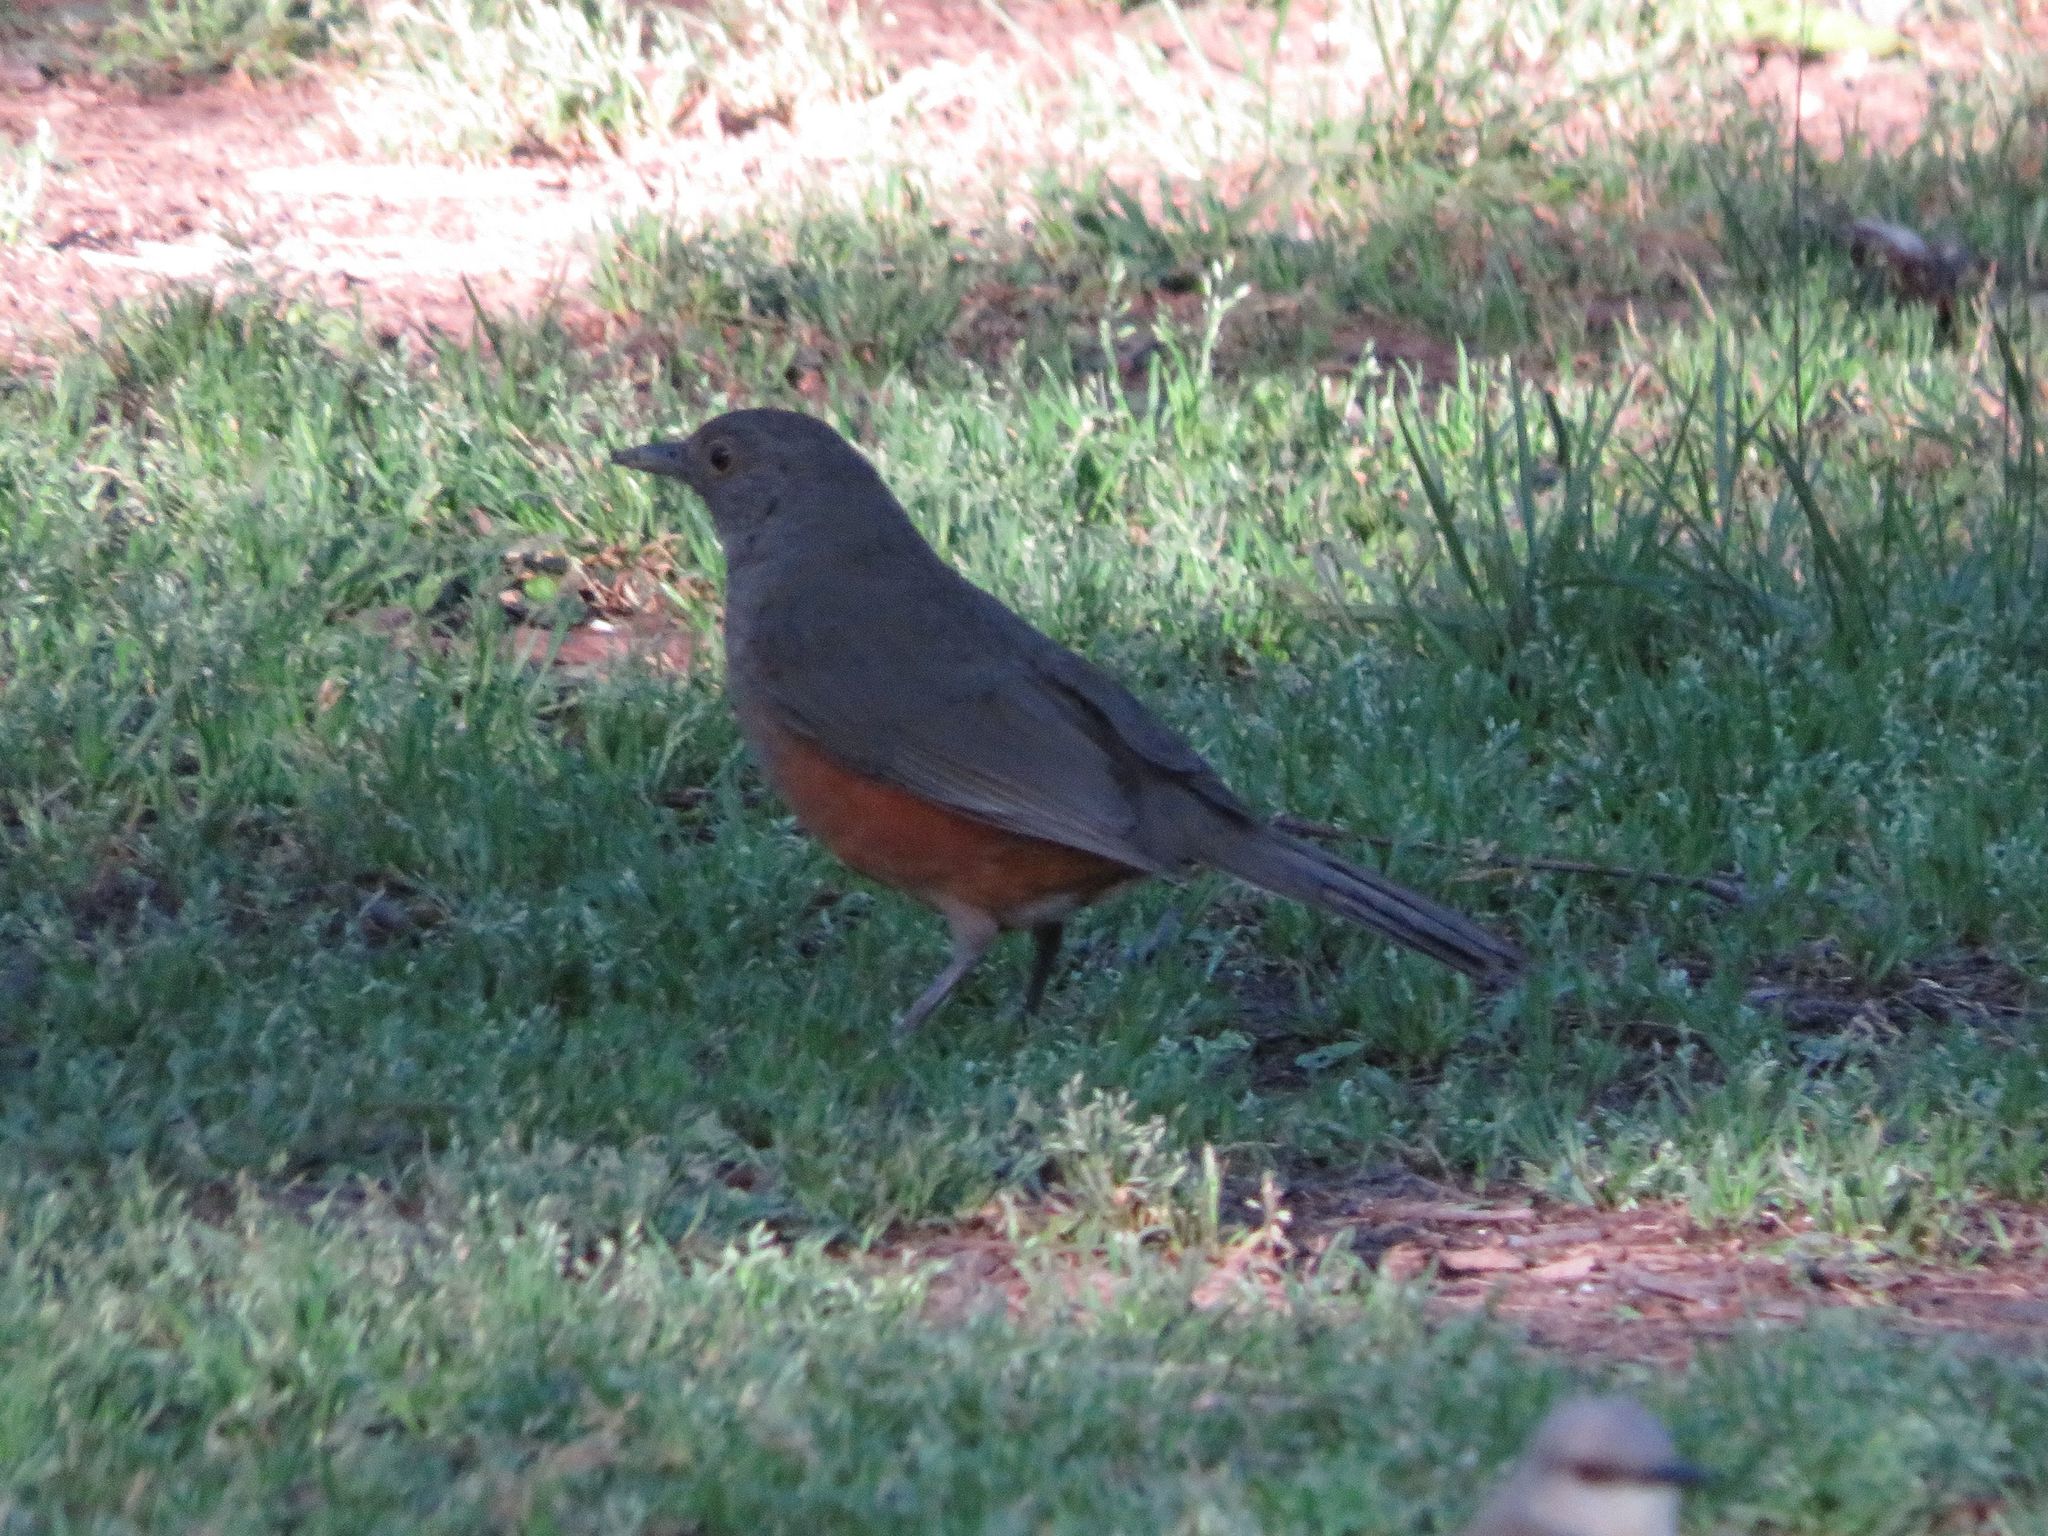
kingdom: Animalia
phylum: Chordata
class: Aves
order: Passeriformes
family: Turdidae
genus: Turdus
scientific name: Turdus rufiventris
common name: Rufous-bellied thrush
